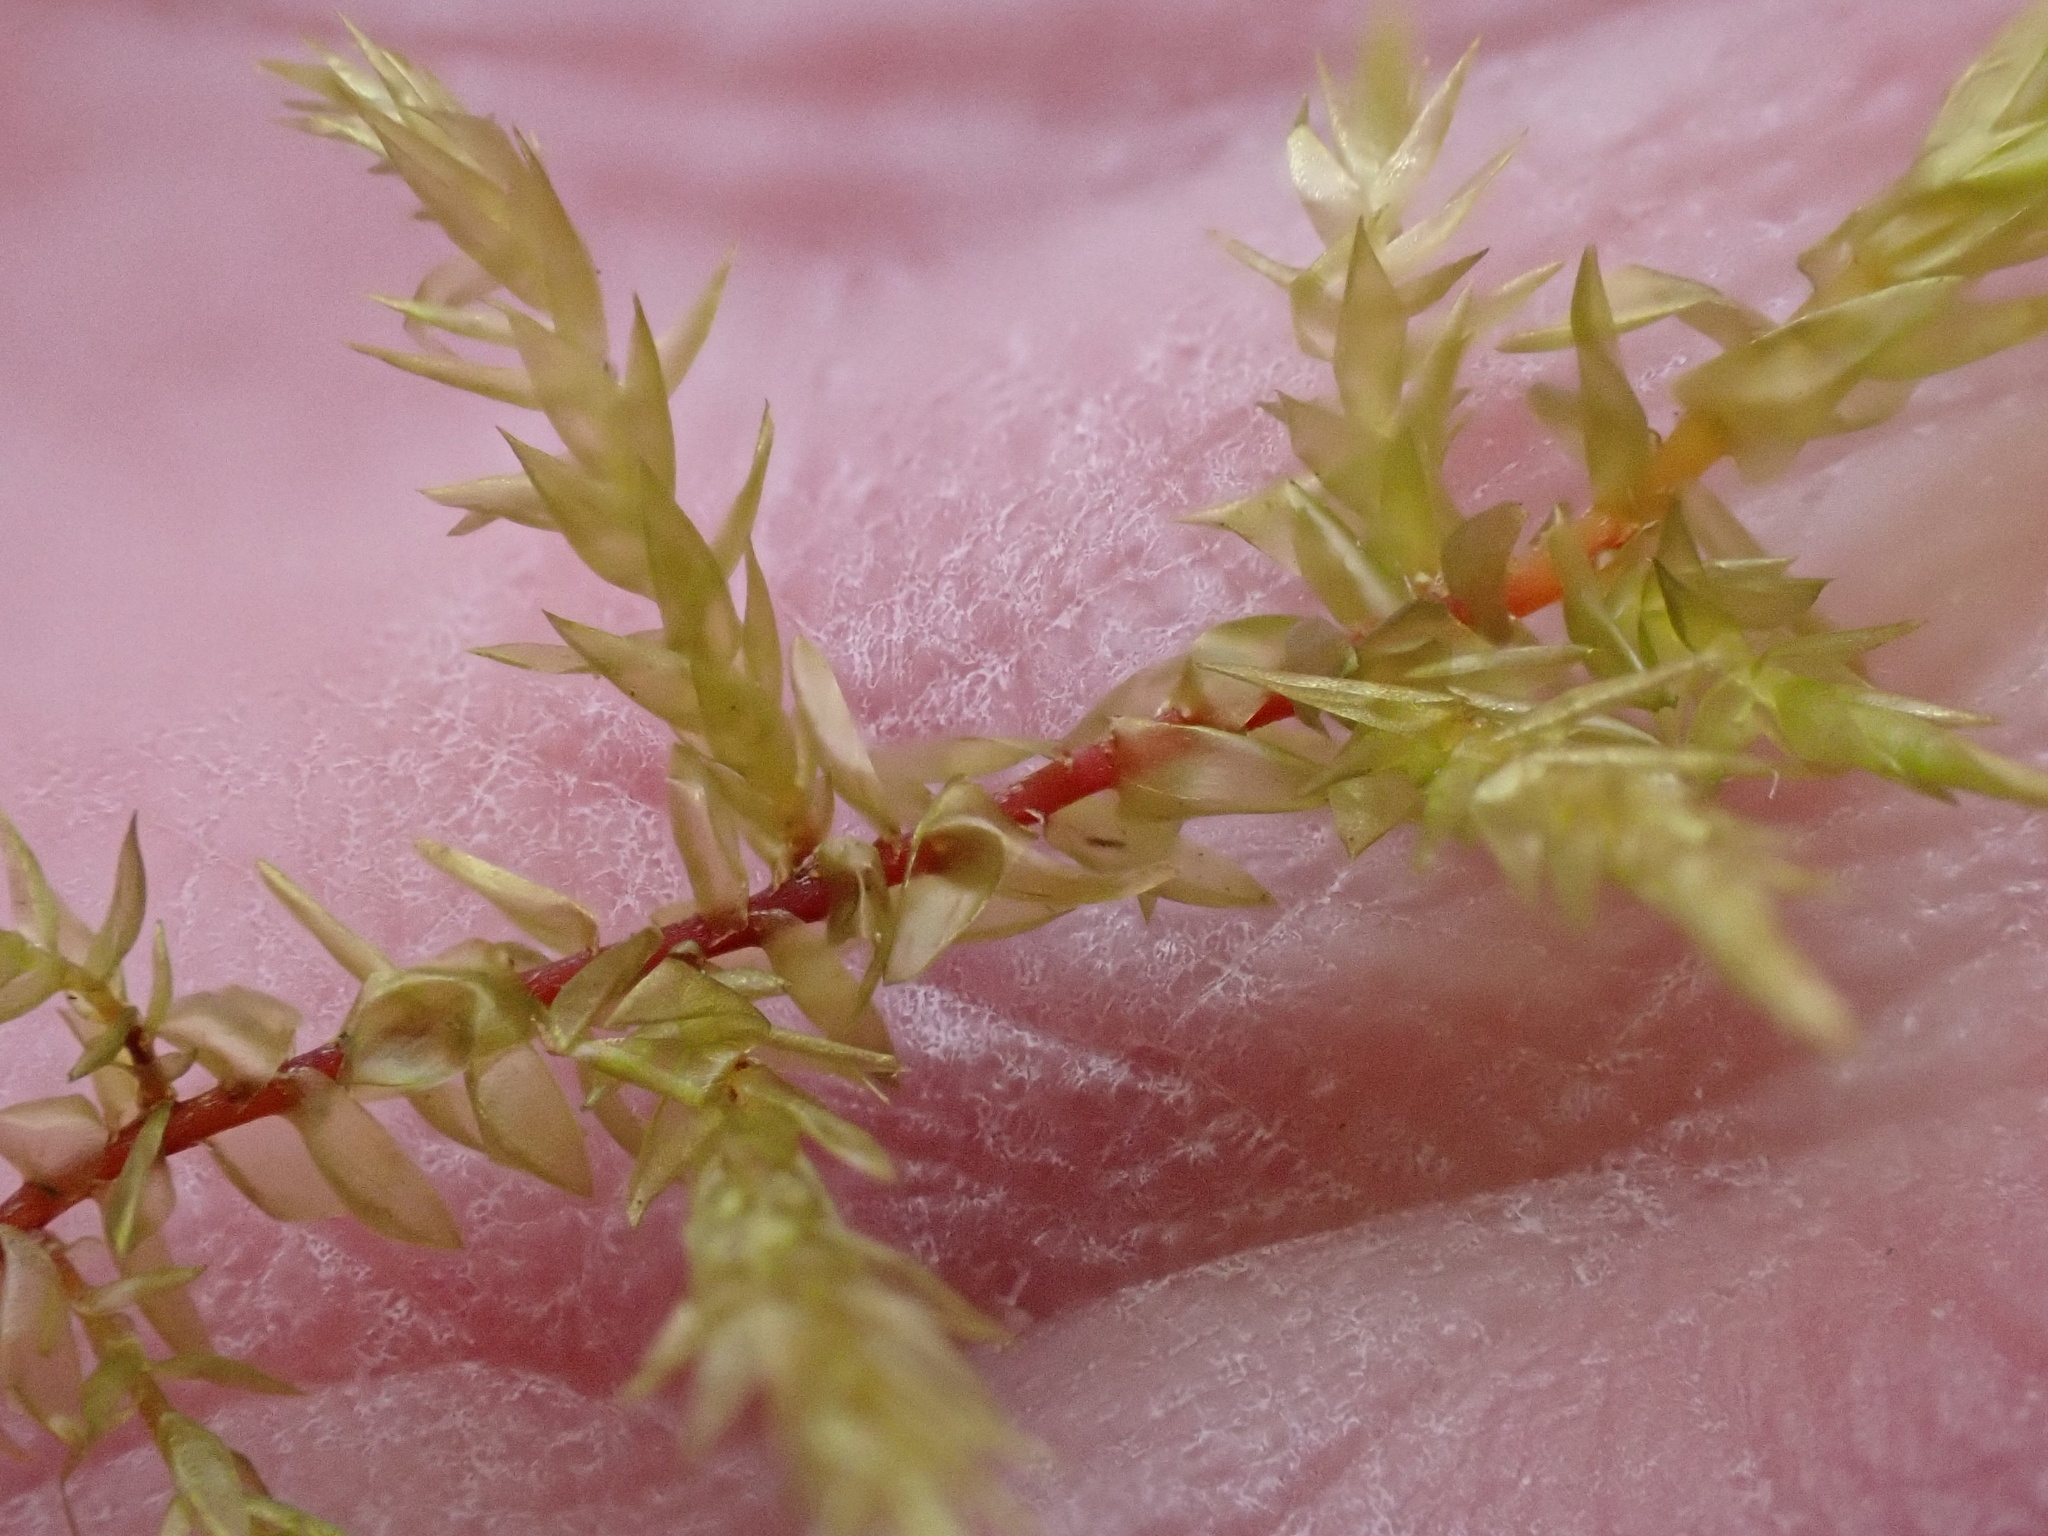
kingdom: Plantae
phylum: Bryophyta
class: Bryopsida
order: Hypnales
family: Pylaisiaceae
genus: Calliergonella
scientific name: Calliergonella cuspidata
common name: Common large wetland moss
